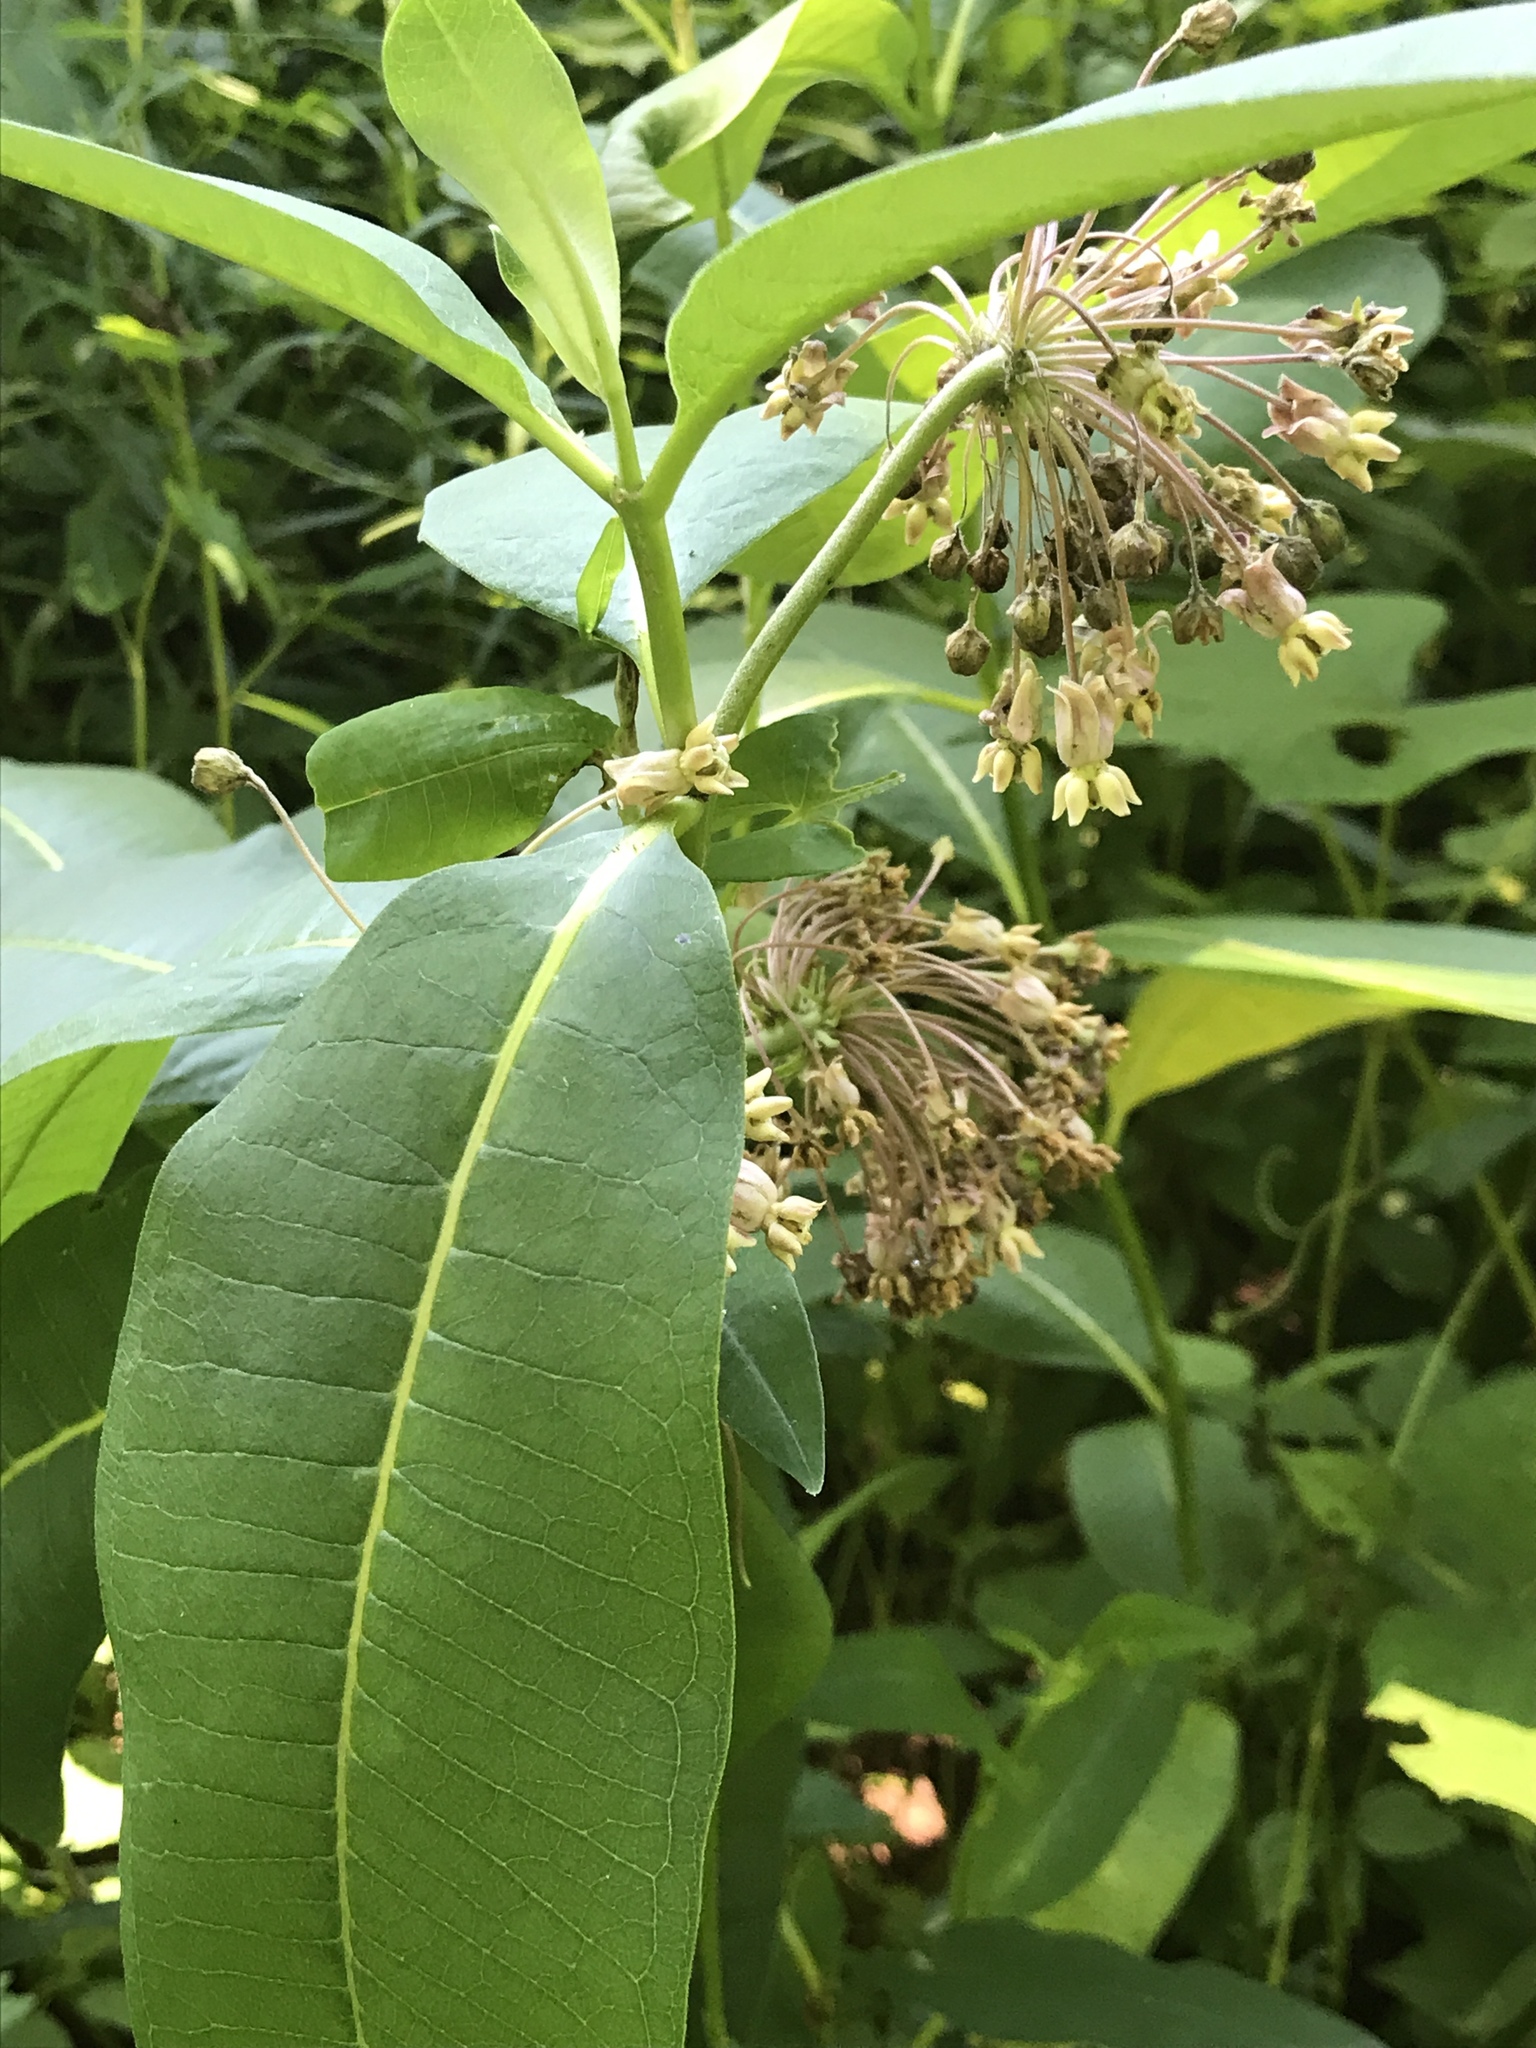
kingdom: Plantae
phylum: Tracheophyta
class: Magnoliopsida
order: Gentianales
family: Apocynaceae
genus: Asclepias
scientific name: Asclepias syriaca
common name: Common milkweed
